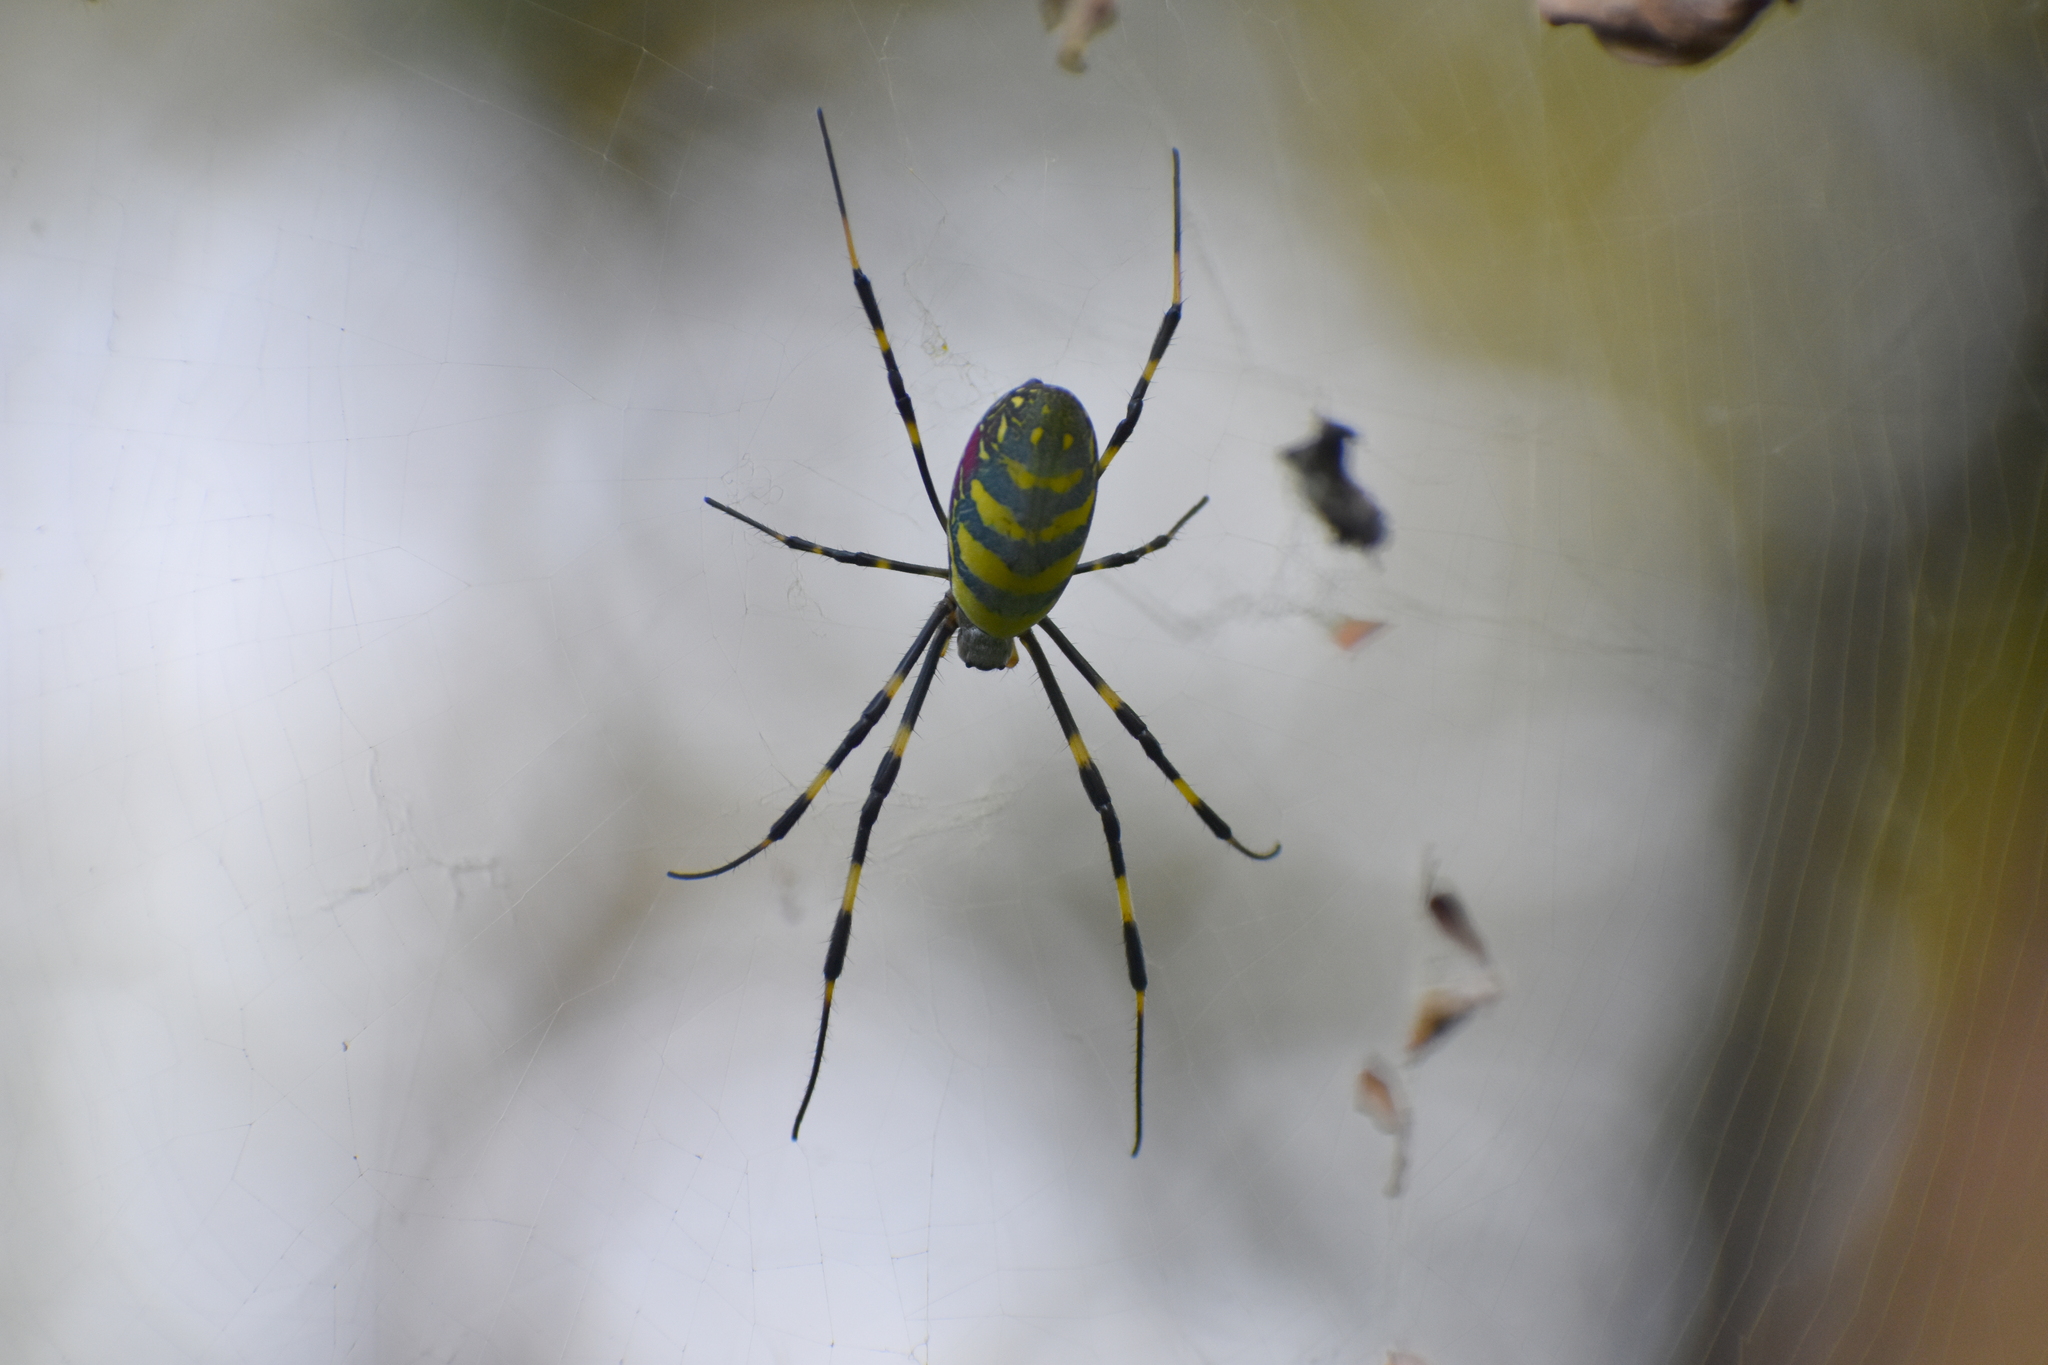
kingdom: Animalia
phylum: Arthropoda
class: Arachnida
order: Araneae
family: Araneidae
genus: Trichonephila
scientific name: Trichonephila clavata
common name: Jorō spider
